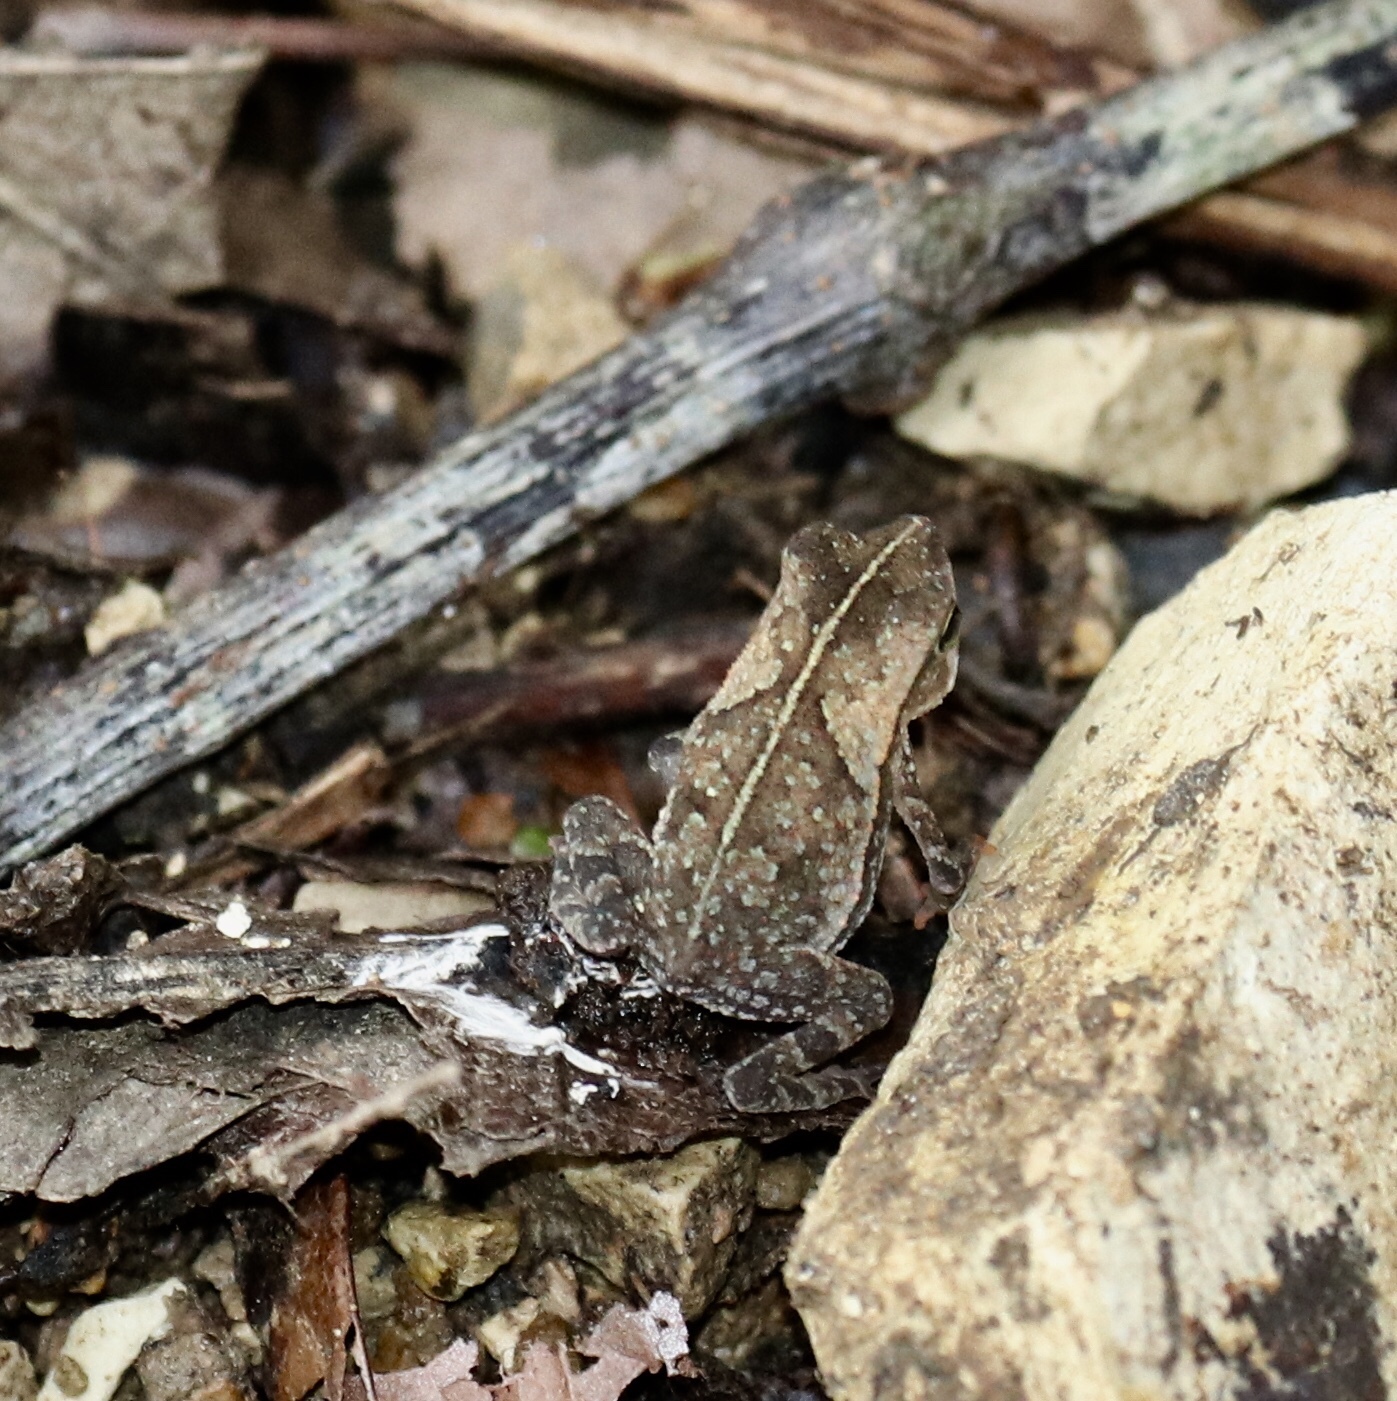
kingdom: Animalia
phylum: Chordata
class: Amphibia
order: Anura
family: Bufonidae
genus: Rhinella
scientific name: Rhinella alata
